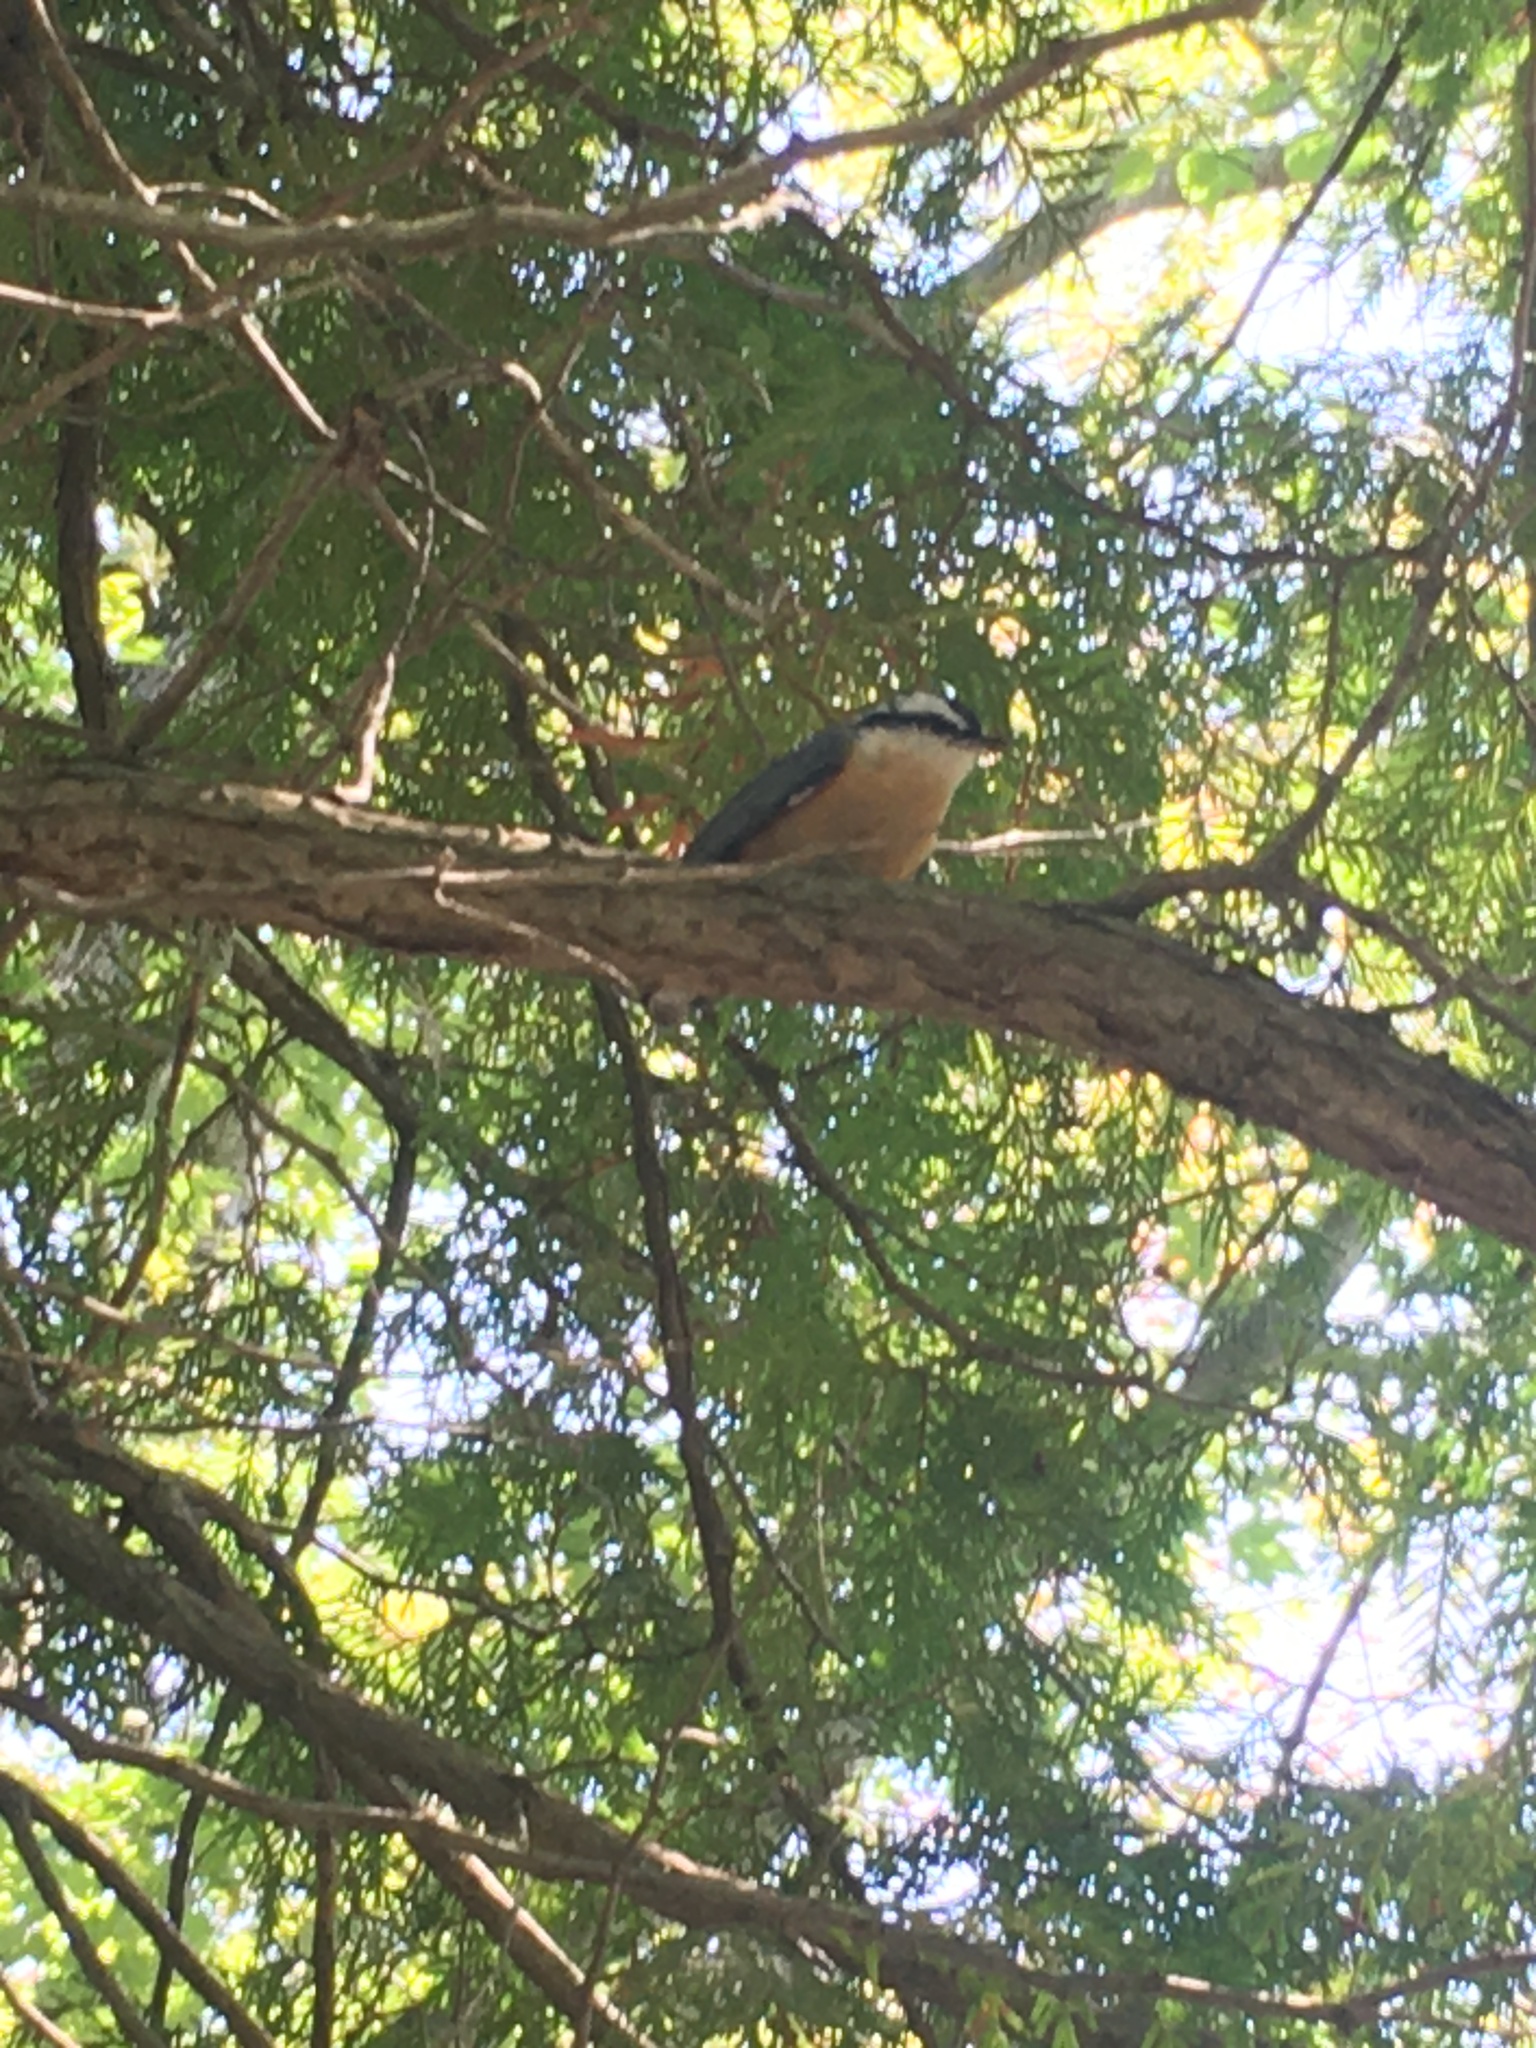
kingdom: Animalia
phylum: Chordata
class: Aves
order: Passeriformes
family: Sittidae
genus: Sitta
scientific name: Sitta canadensis
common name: Red-breasted nuthatch
